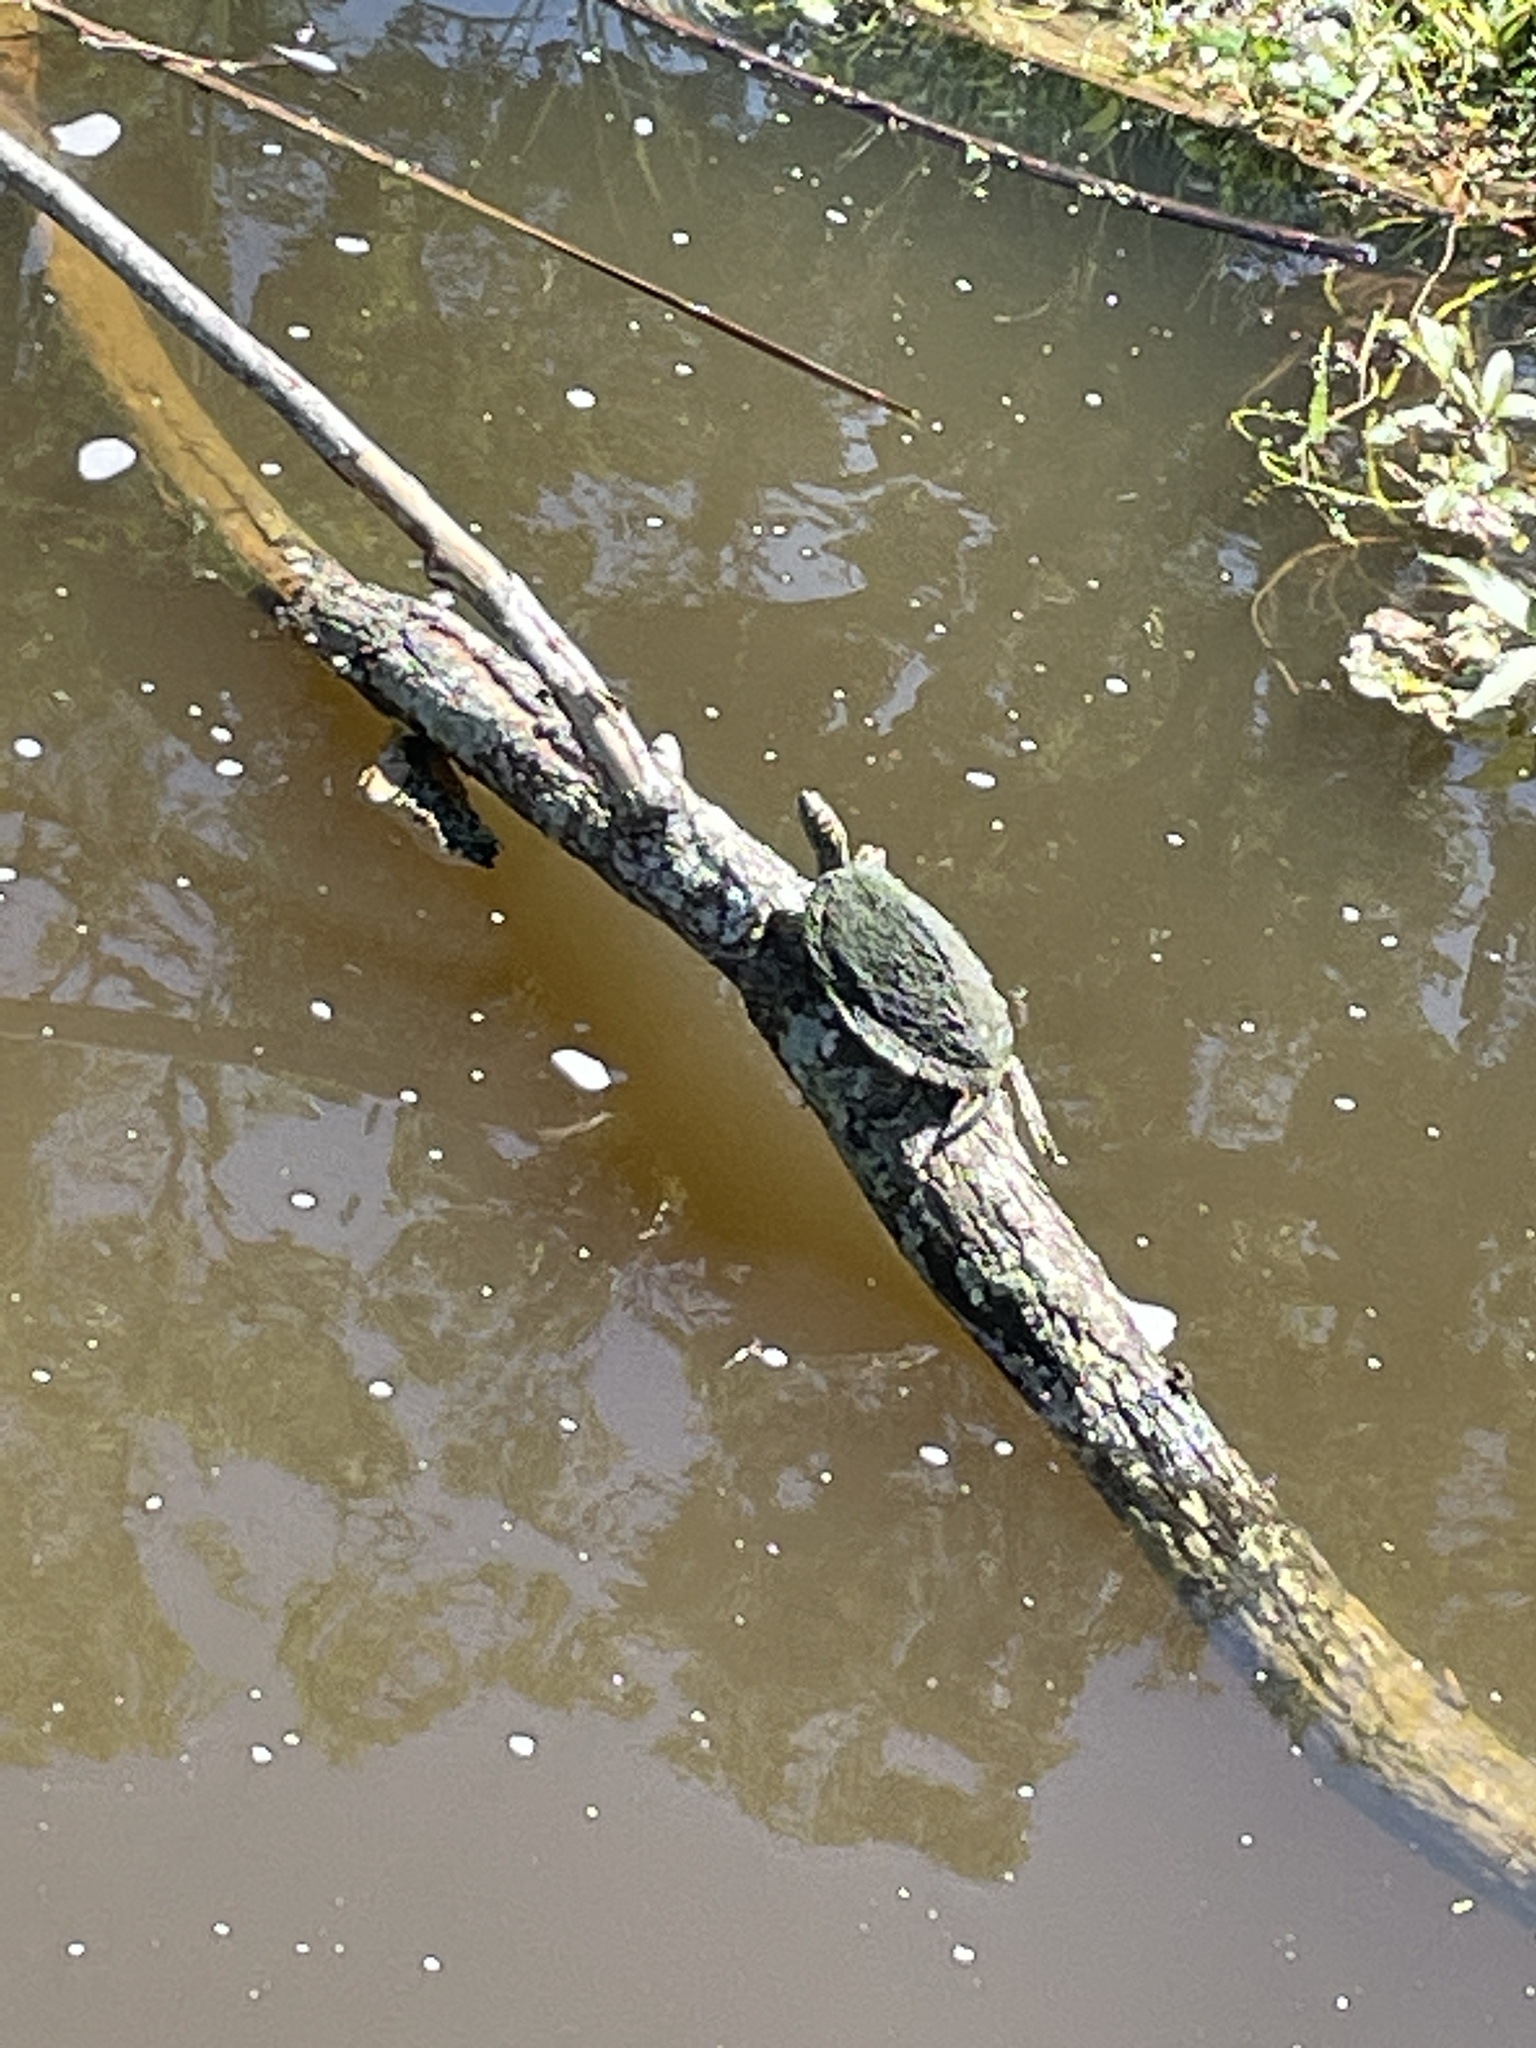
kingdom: Animalia
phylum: Chordata
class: Testudines
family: Emydidae
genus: Graptemys
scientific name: Graptemys pseudogeographica
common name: False map turtle
